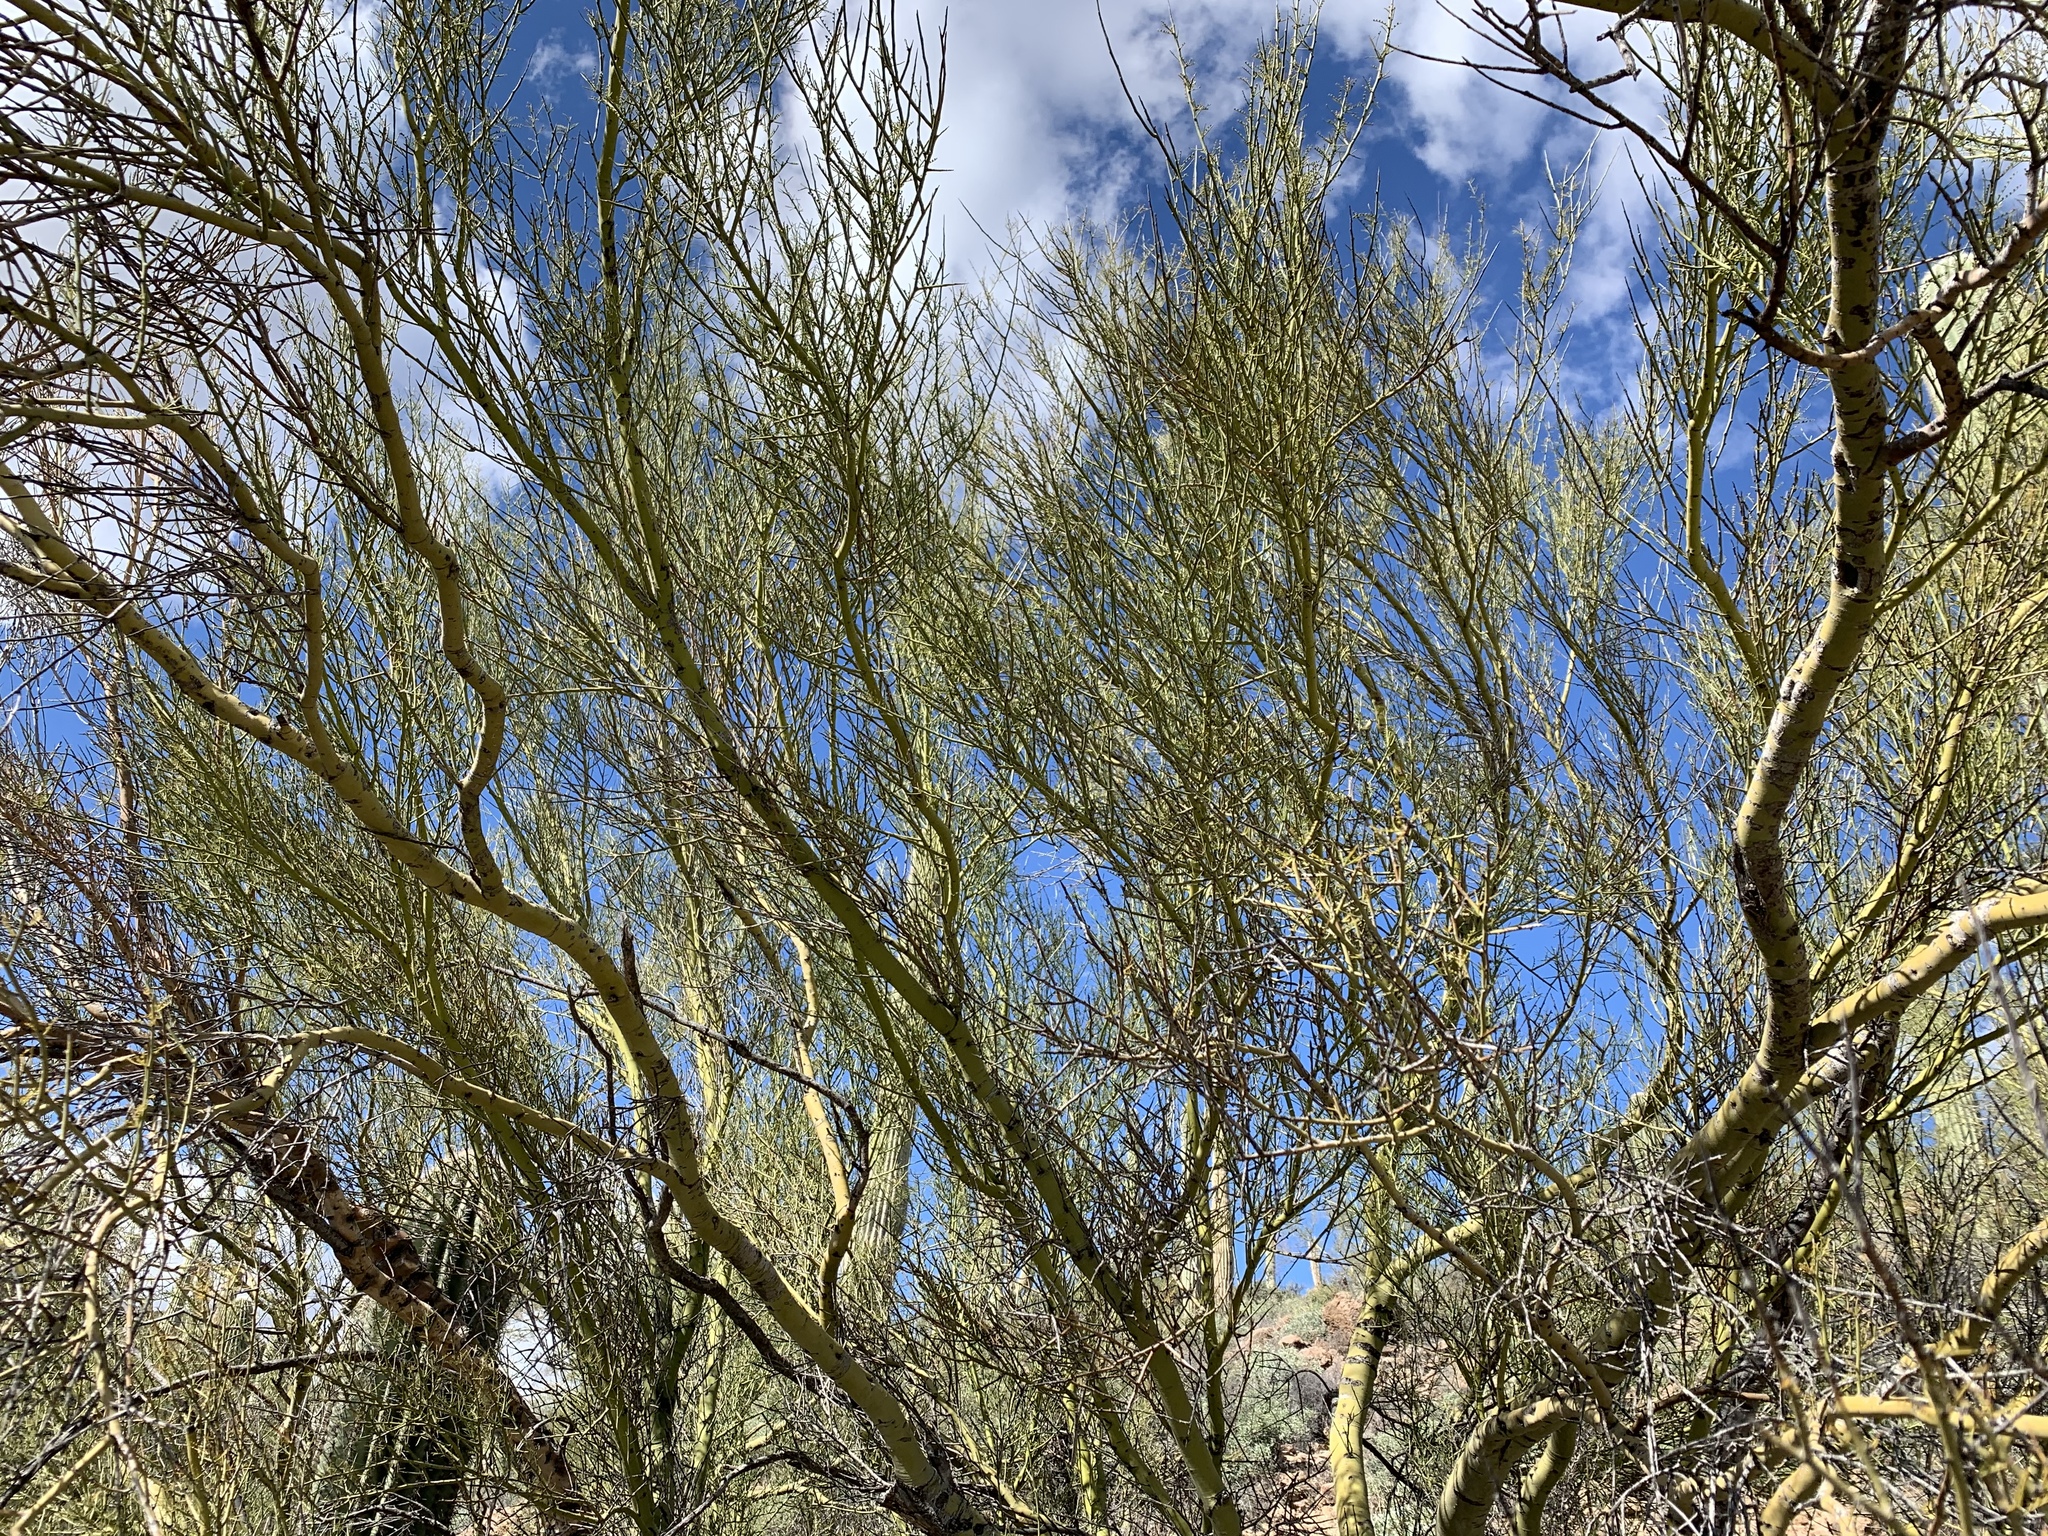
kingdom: Plantae
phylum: Tracheophyta
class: Magnoliopsida
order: Fabales
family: Fabaceae
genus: Parkinsonia
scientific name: Parkinsonia microphylla
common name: Yellow paloverde
